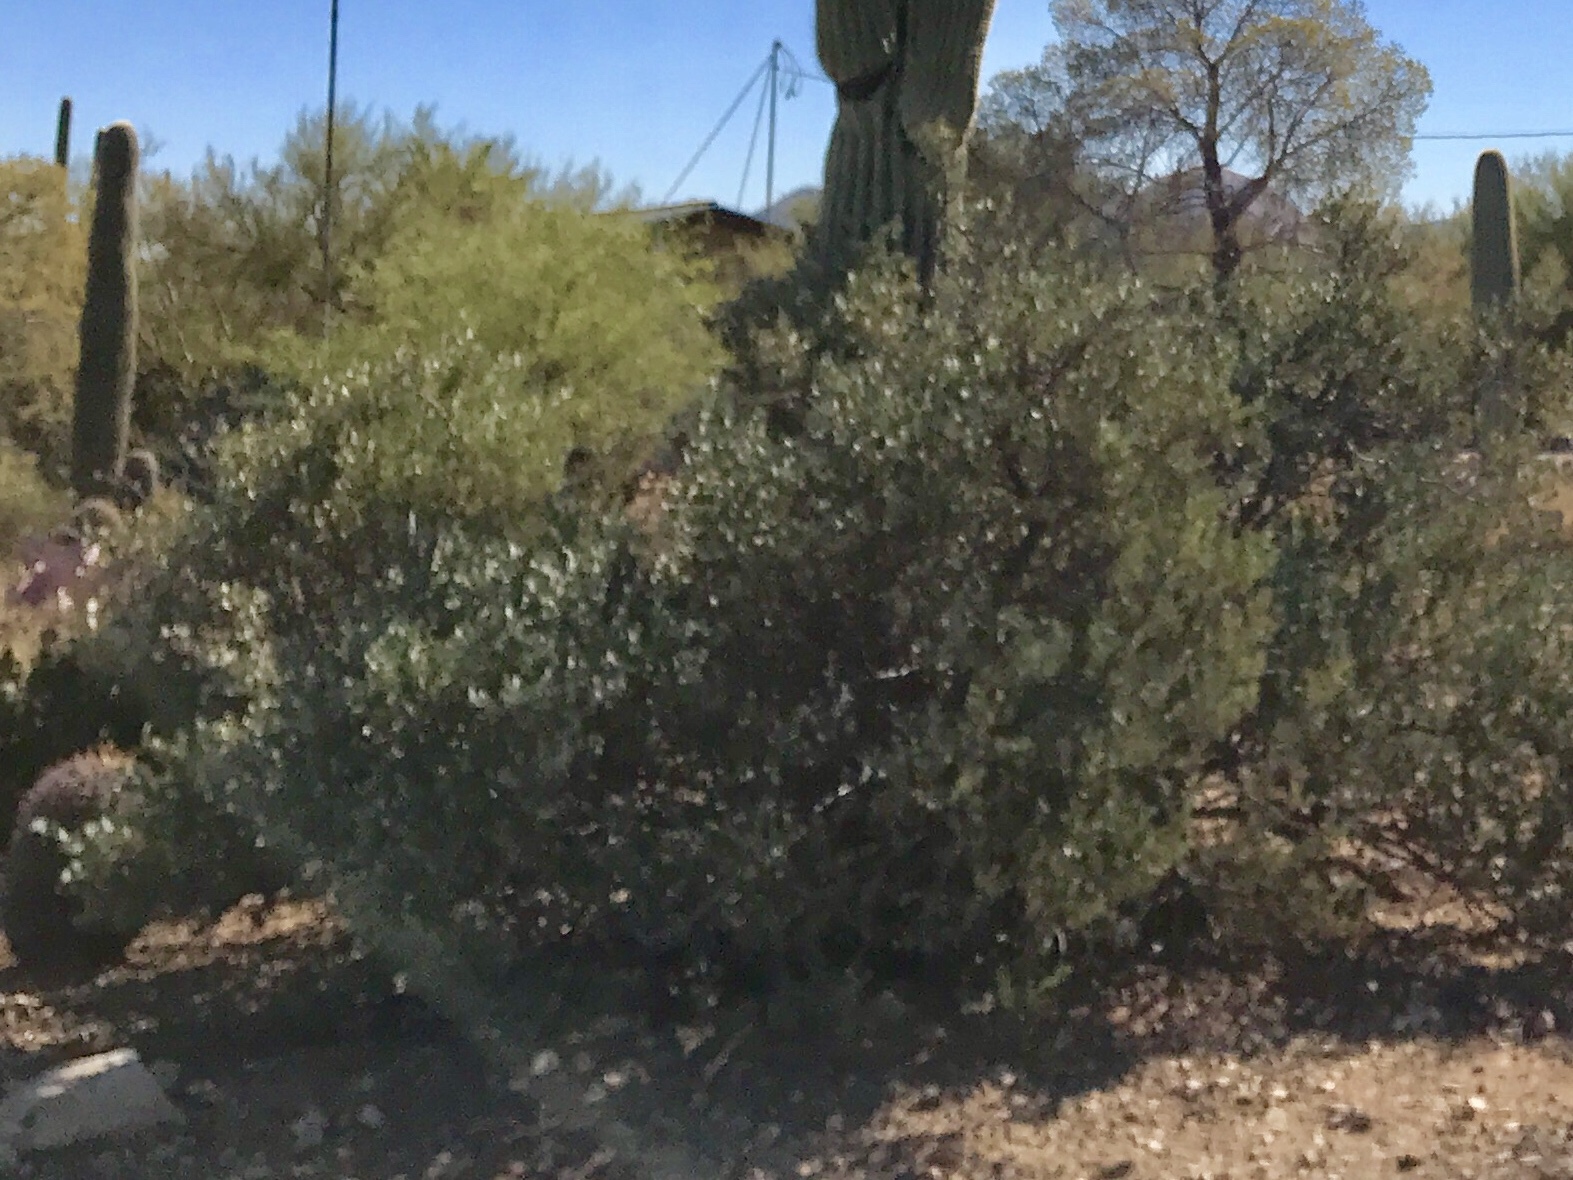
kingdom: Plantae
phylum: Tracheophyta
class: Magnoliopsida
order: Caryophyllales
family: Simmondsiaceae
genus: Simmondsia
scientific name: Simmondsia chinensis
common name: Jojoba
